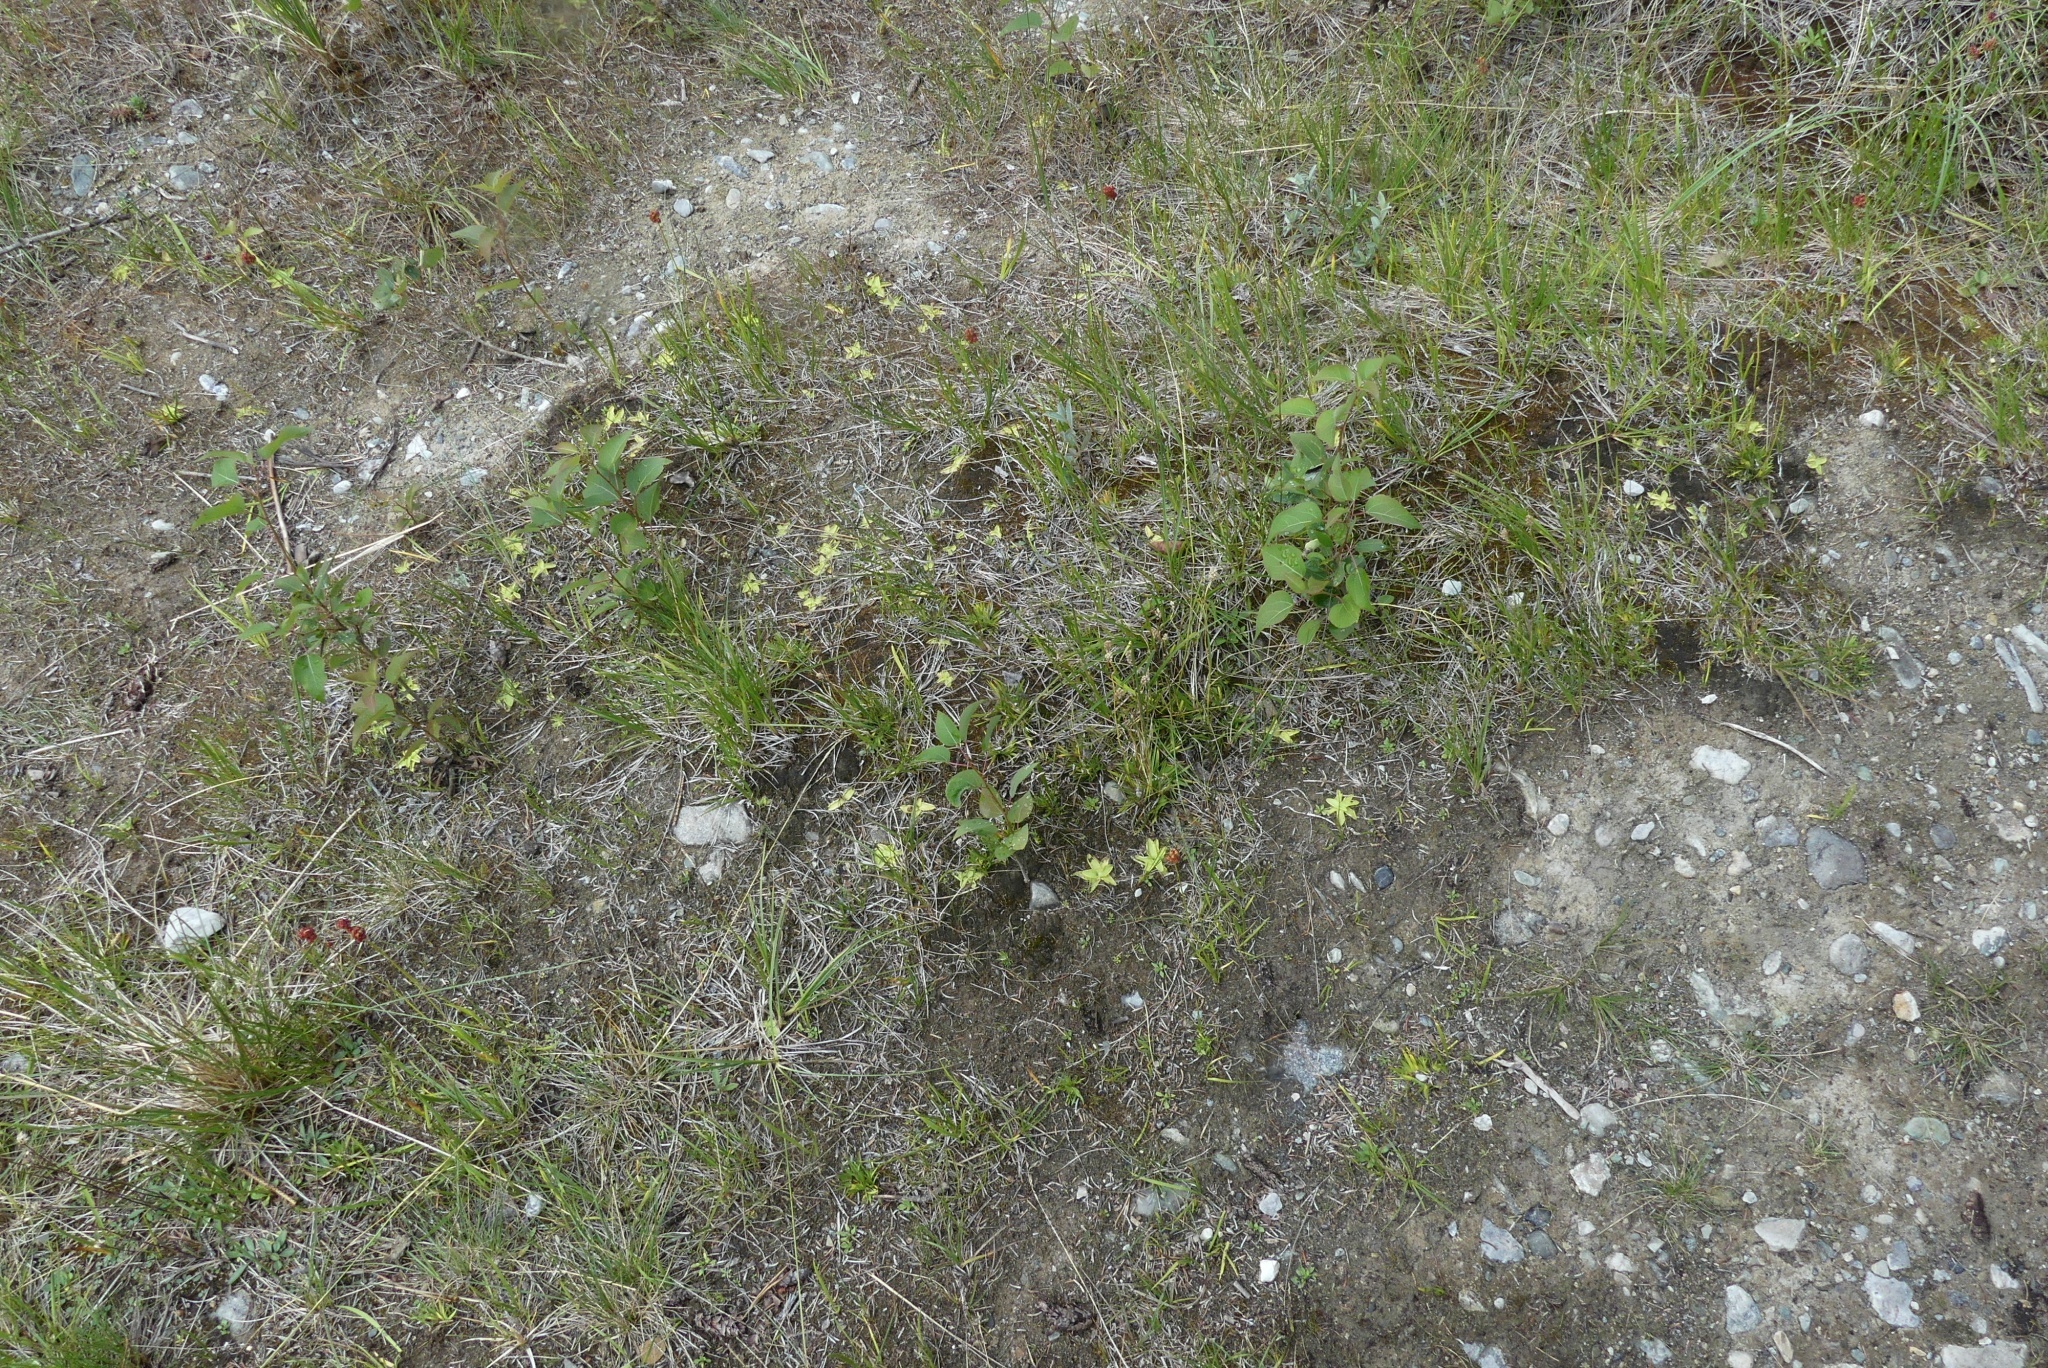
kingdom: Plantae
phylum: Tracheophyta
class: Magnoliopsida
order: Lamiales
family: Lentibulariaceae
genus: Pinguicula
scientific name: Pinguicula vulgaris
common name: Common butterwort
